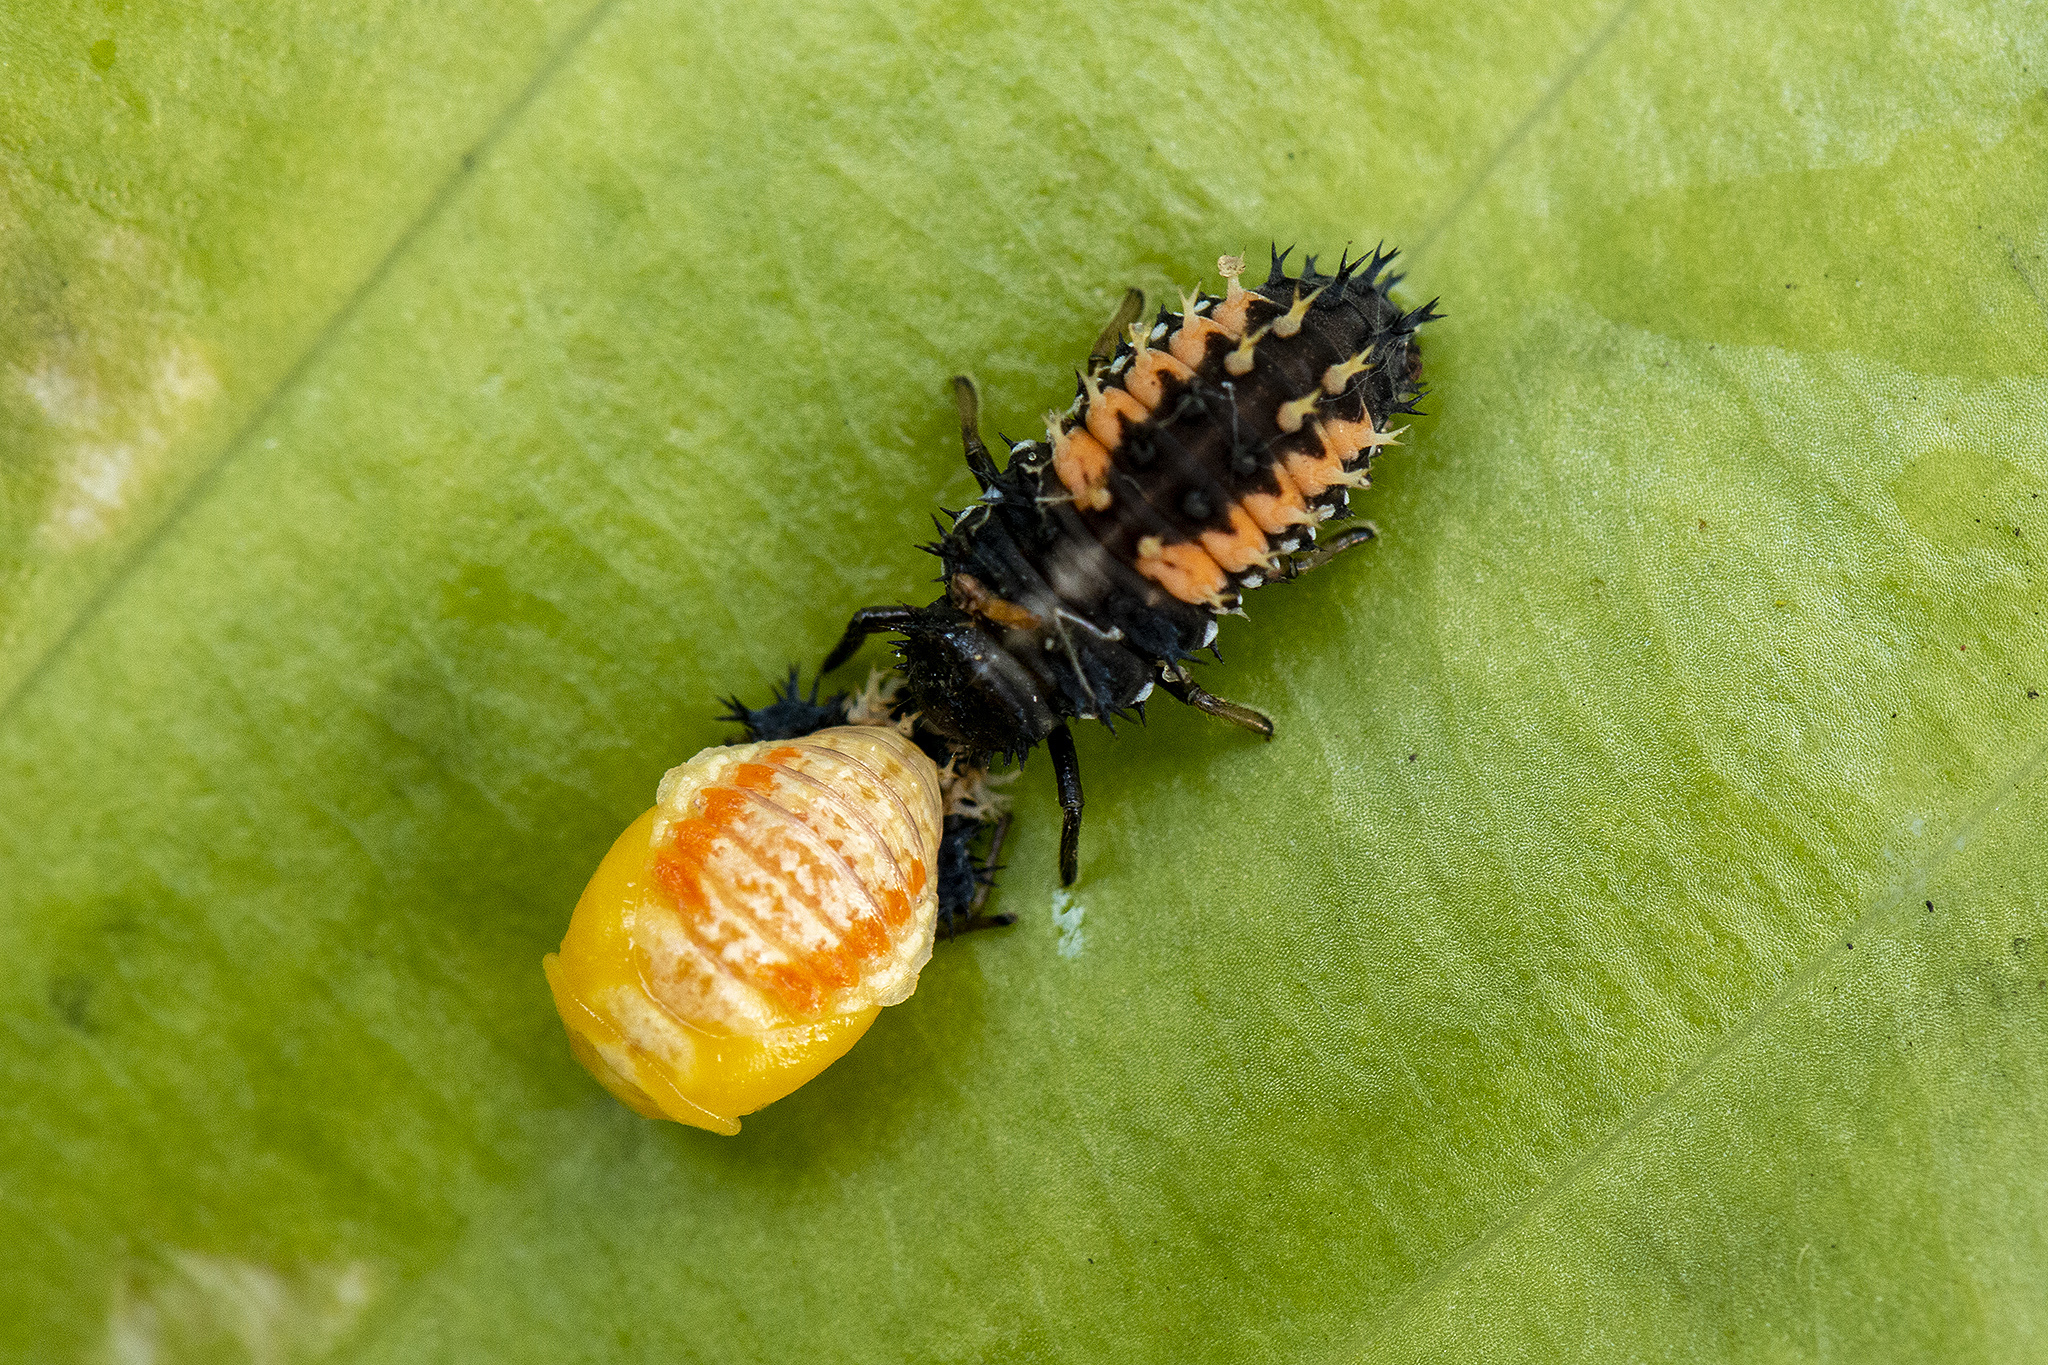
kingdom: Animalia
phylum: Arthropoda
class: Insecta
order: Coleoptera
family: Coccinellidae
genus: Harmonia
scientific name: Harmonia axyridis
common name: Harlequin ladybird
